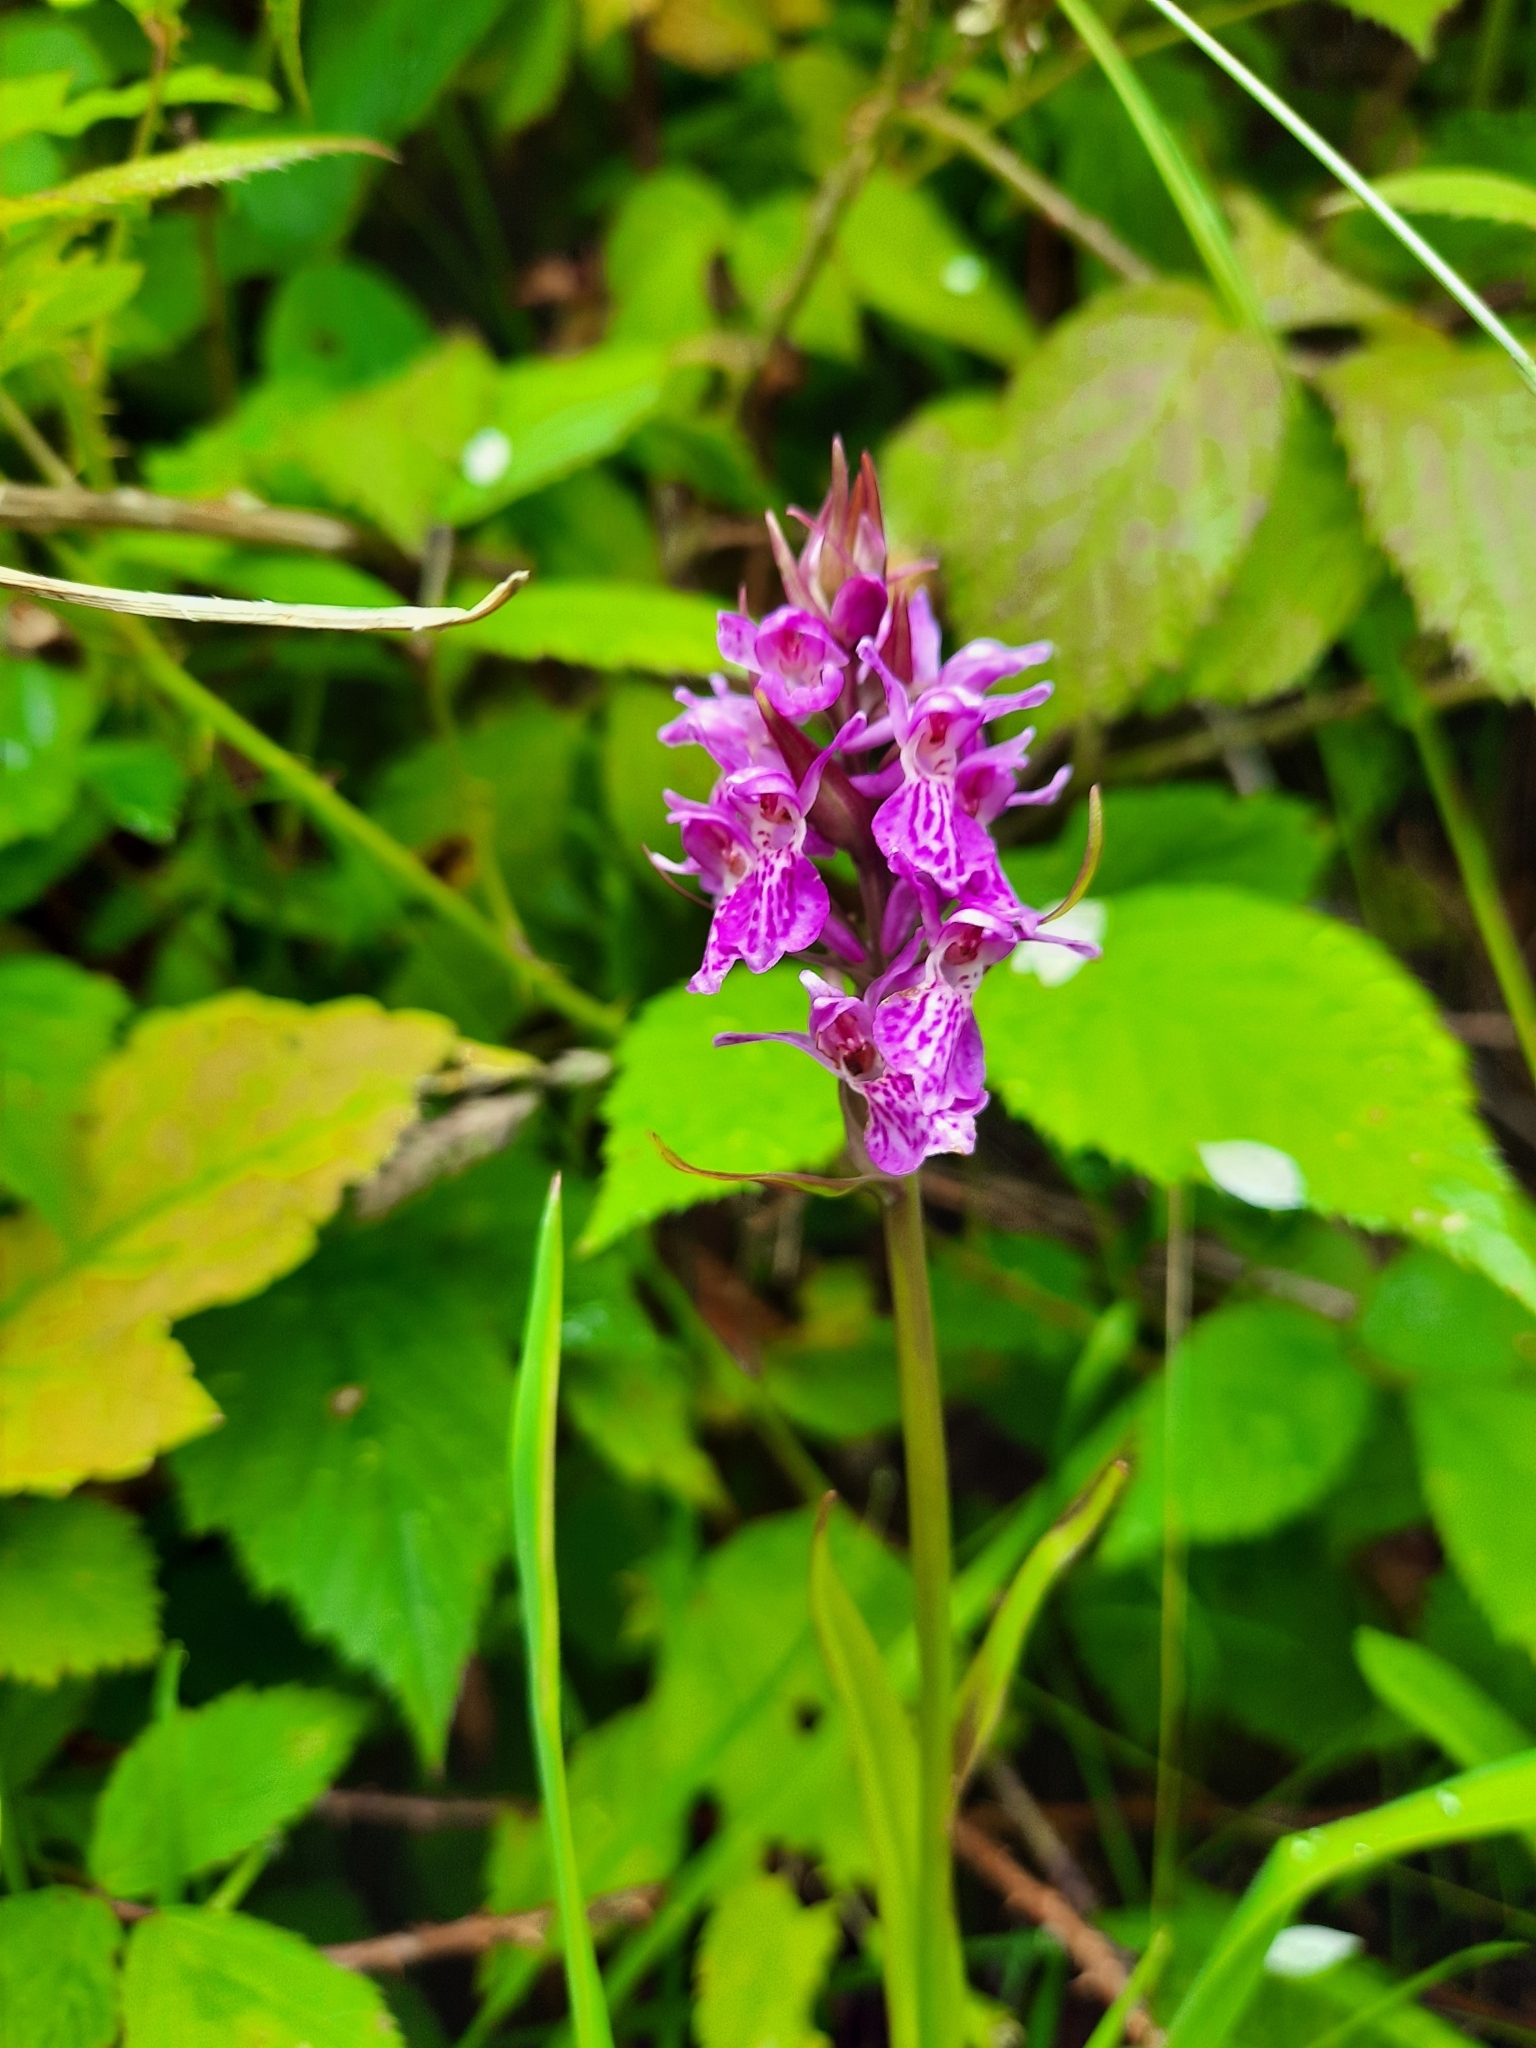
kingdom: Plantae
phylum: Tracheophyta
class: Liliopsida
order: Asparagales
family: Orchidaceae
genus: Dactylorhiza
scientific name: Dactylorhiza majalis
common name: Marsh orchid
